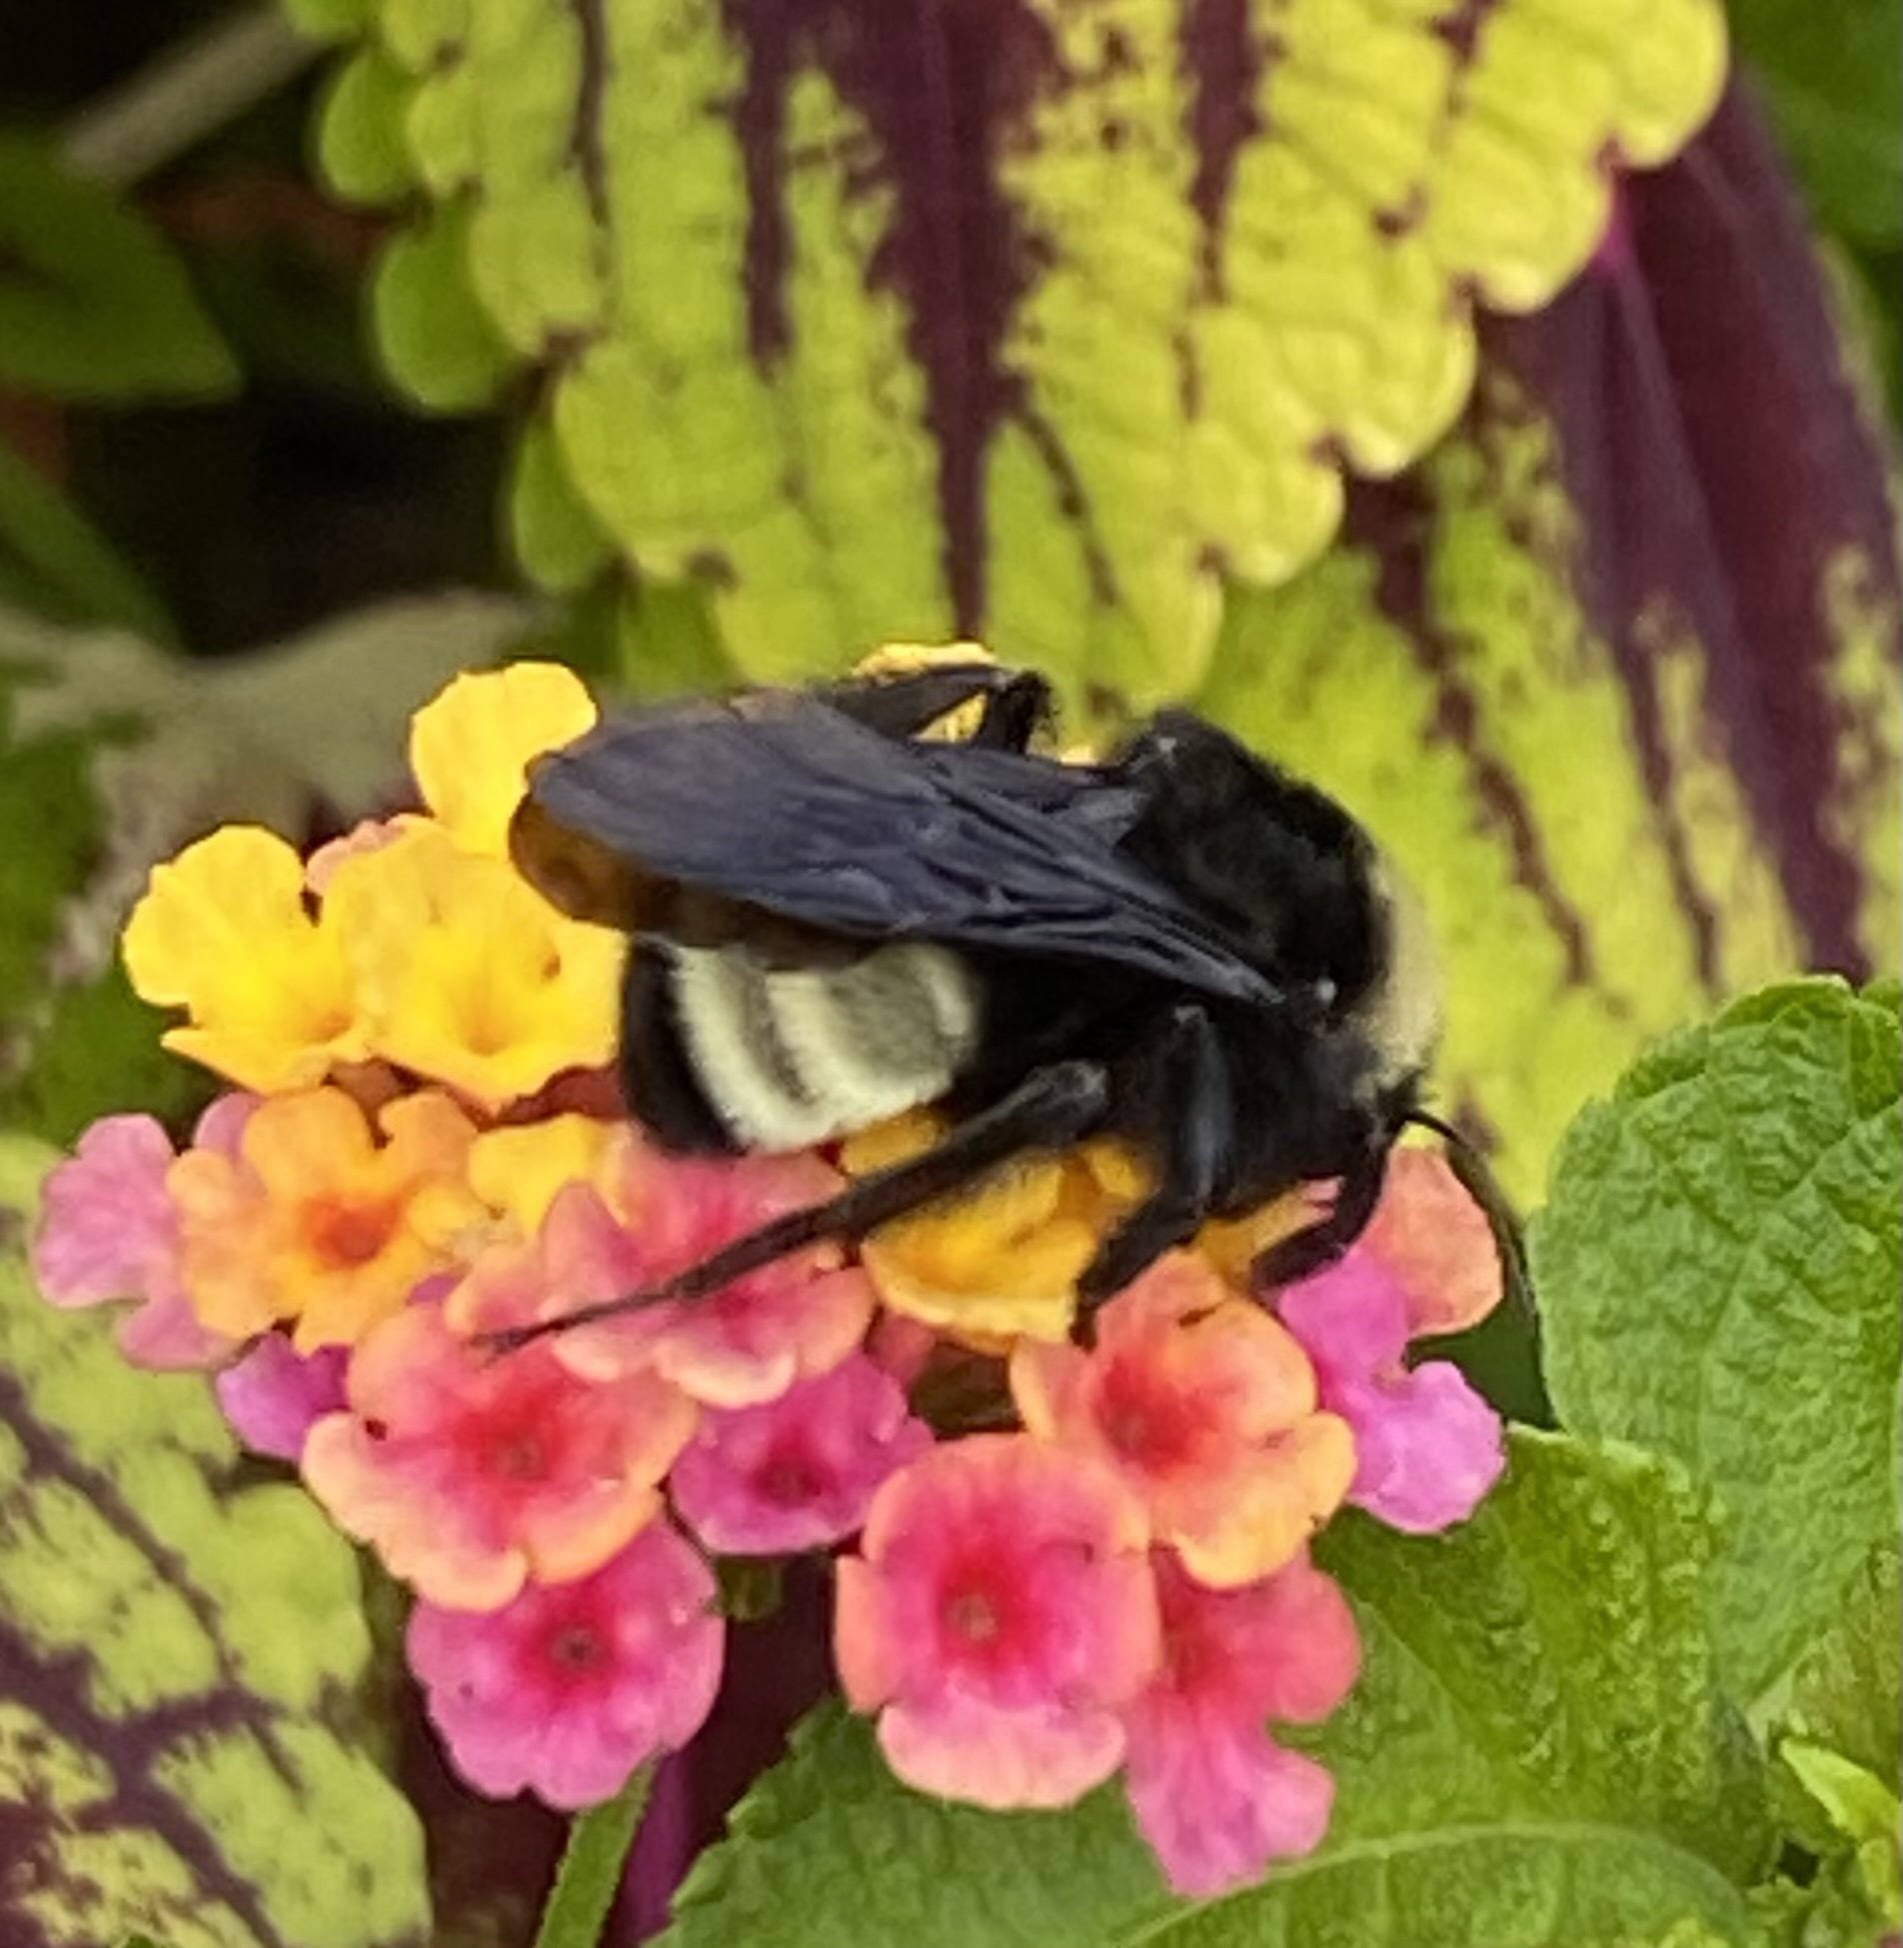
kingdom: Animalia
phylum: Arthropoda
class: Insecta
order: Hymenoptera
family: Apidae
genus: Bombus
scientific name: Bombus pensylvanicus
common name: Bumble bee
